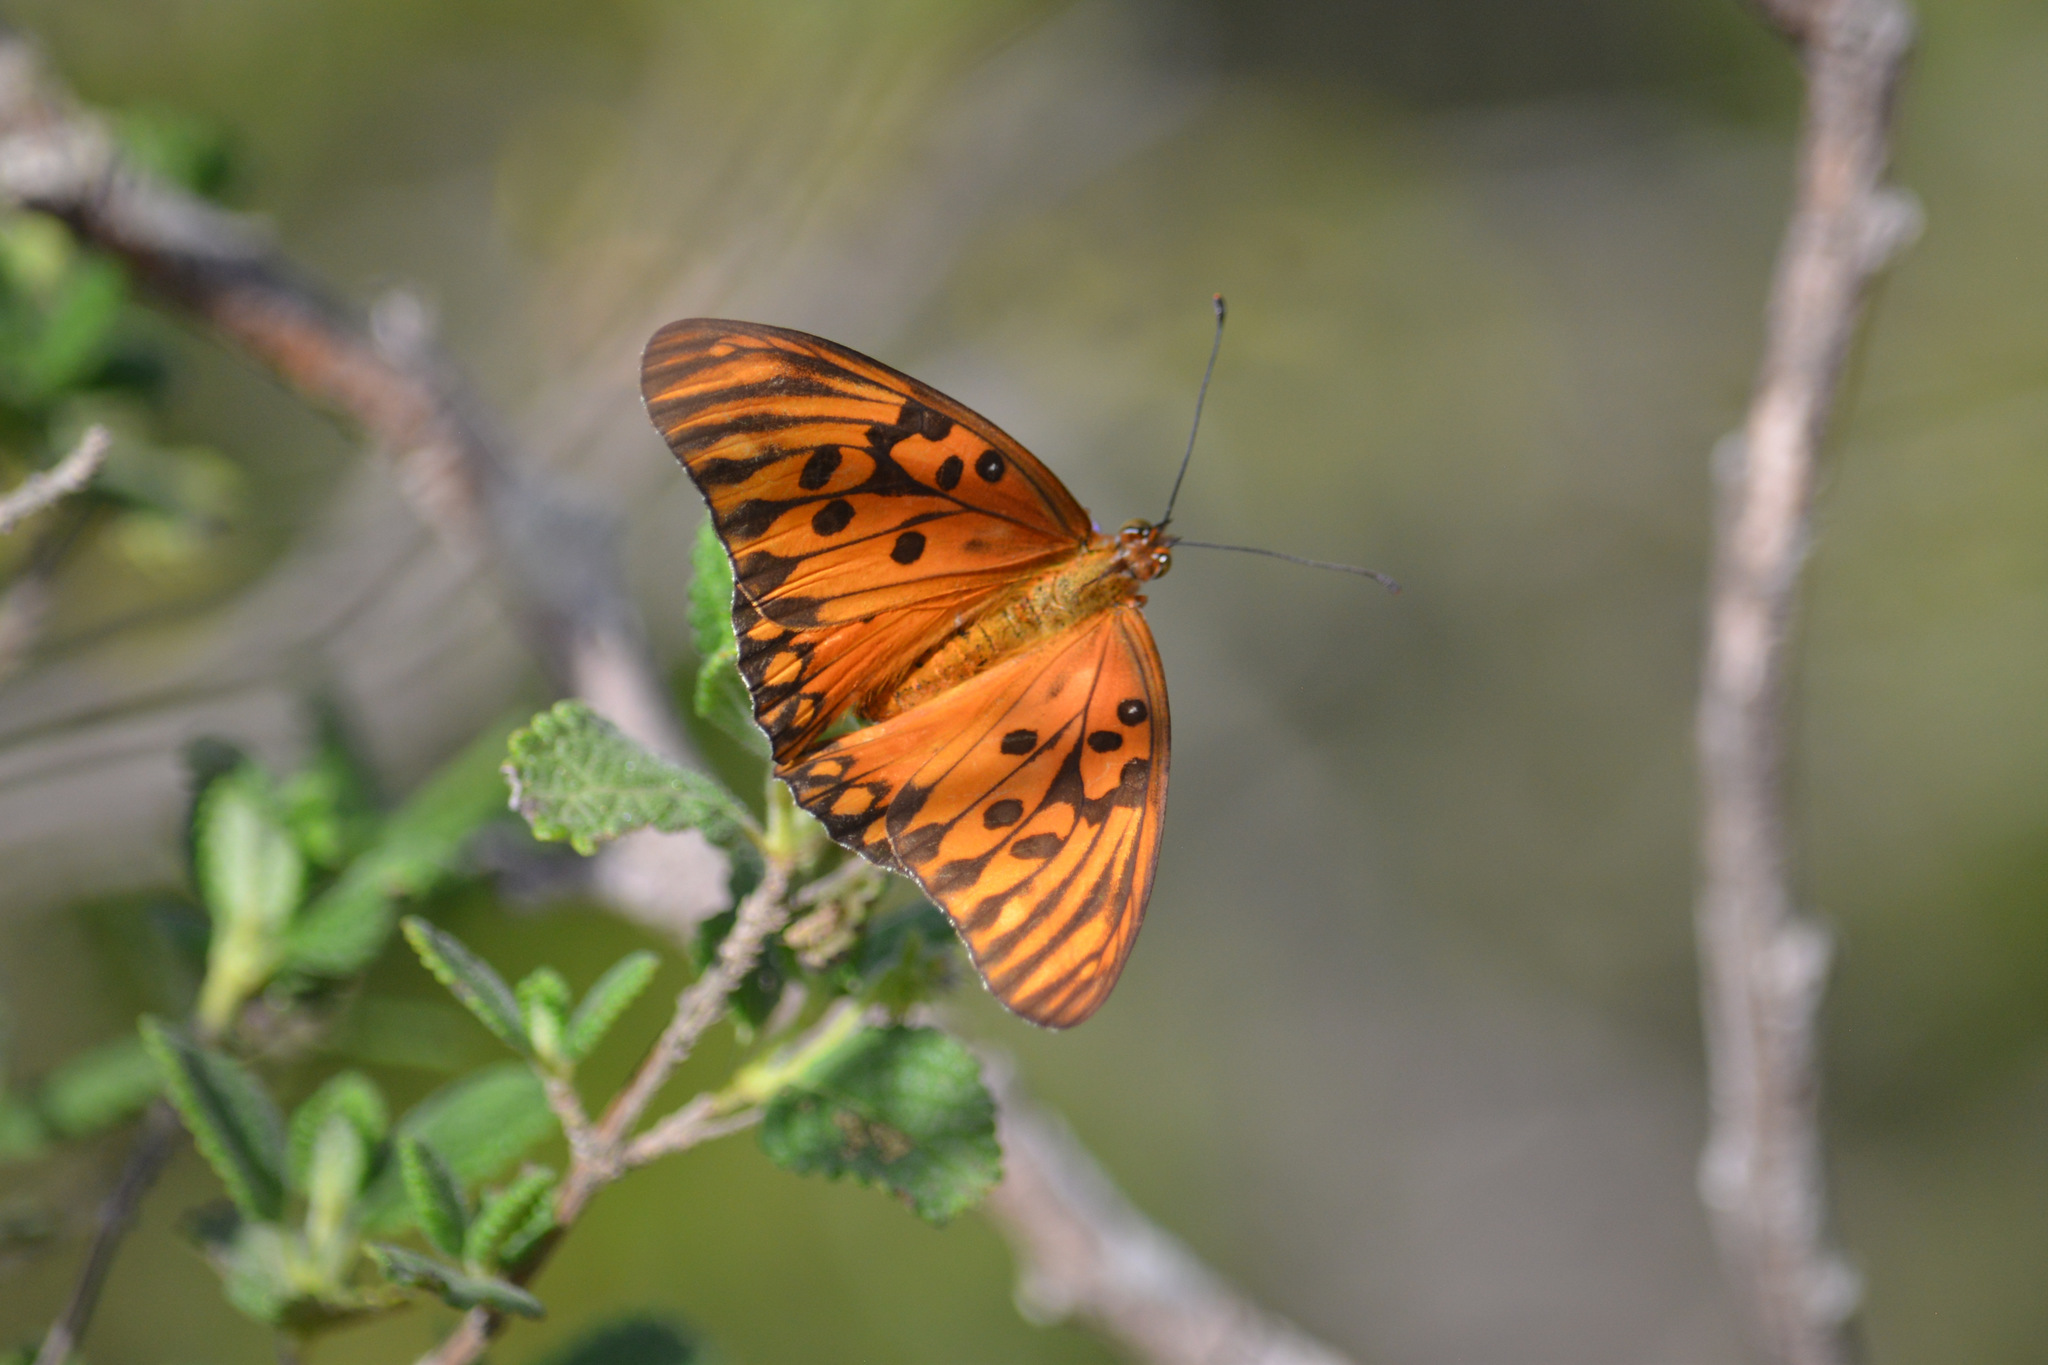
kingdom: Animalia
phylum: Arthropoda
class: Insecta
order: Lepidoptera
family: Nymphalidae
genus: Dione
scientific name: Dione vanillae
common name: Gulf fritillary
